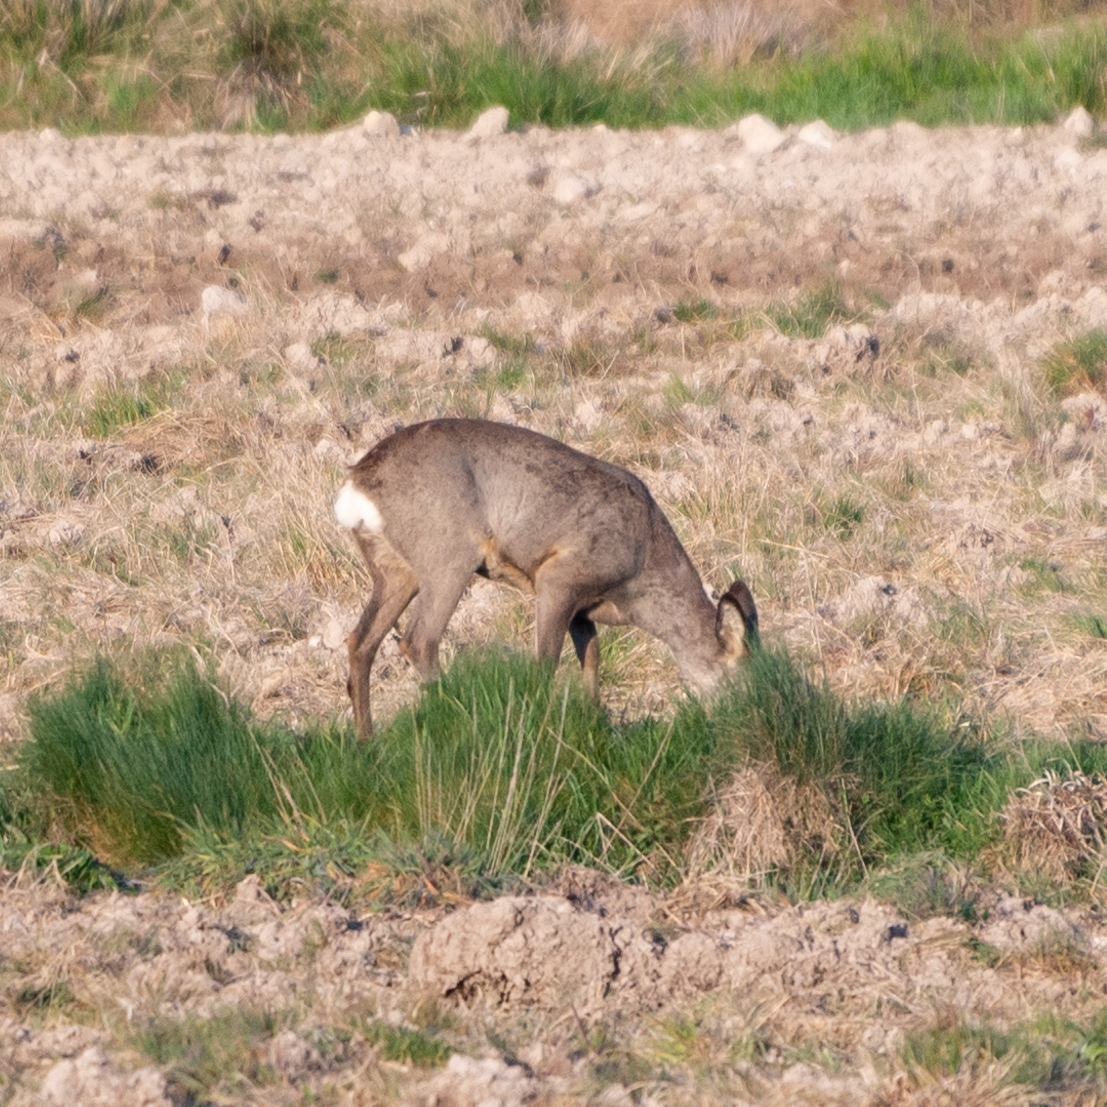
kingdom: Animalia
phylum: Chordata
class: Mammalia
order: Artiodactyla
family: Cervidae
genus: Capreolus
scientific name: Capreolus capreolus
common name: Western roe deer
